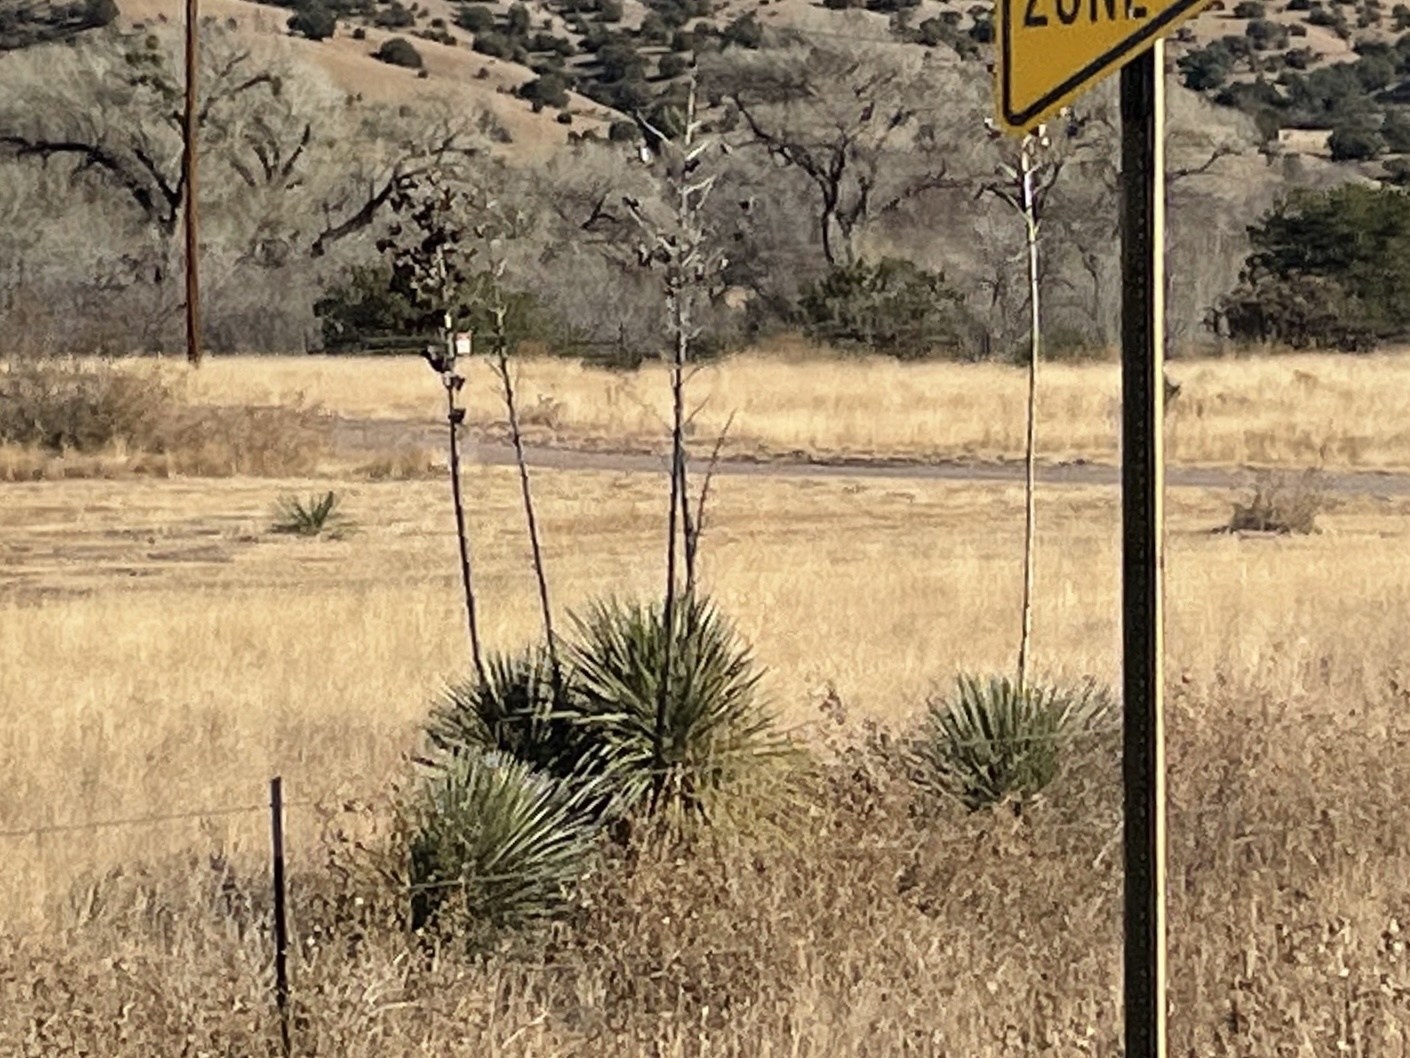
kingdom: Plantae
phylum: Tracheophyta
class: Liliopsida
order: Asparagales
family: Asparagaceae
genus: Yucca
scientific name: Yucca elata
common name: Palmella
